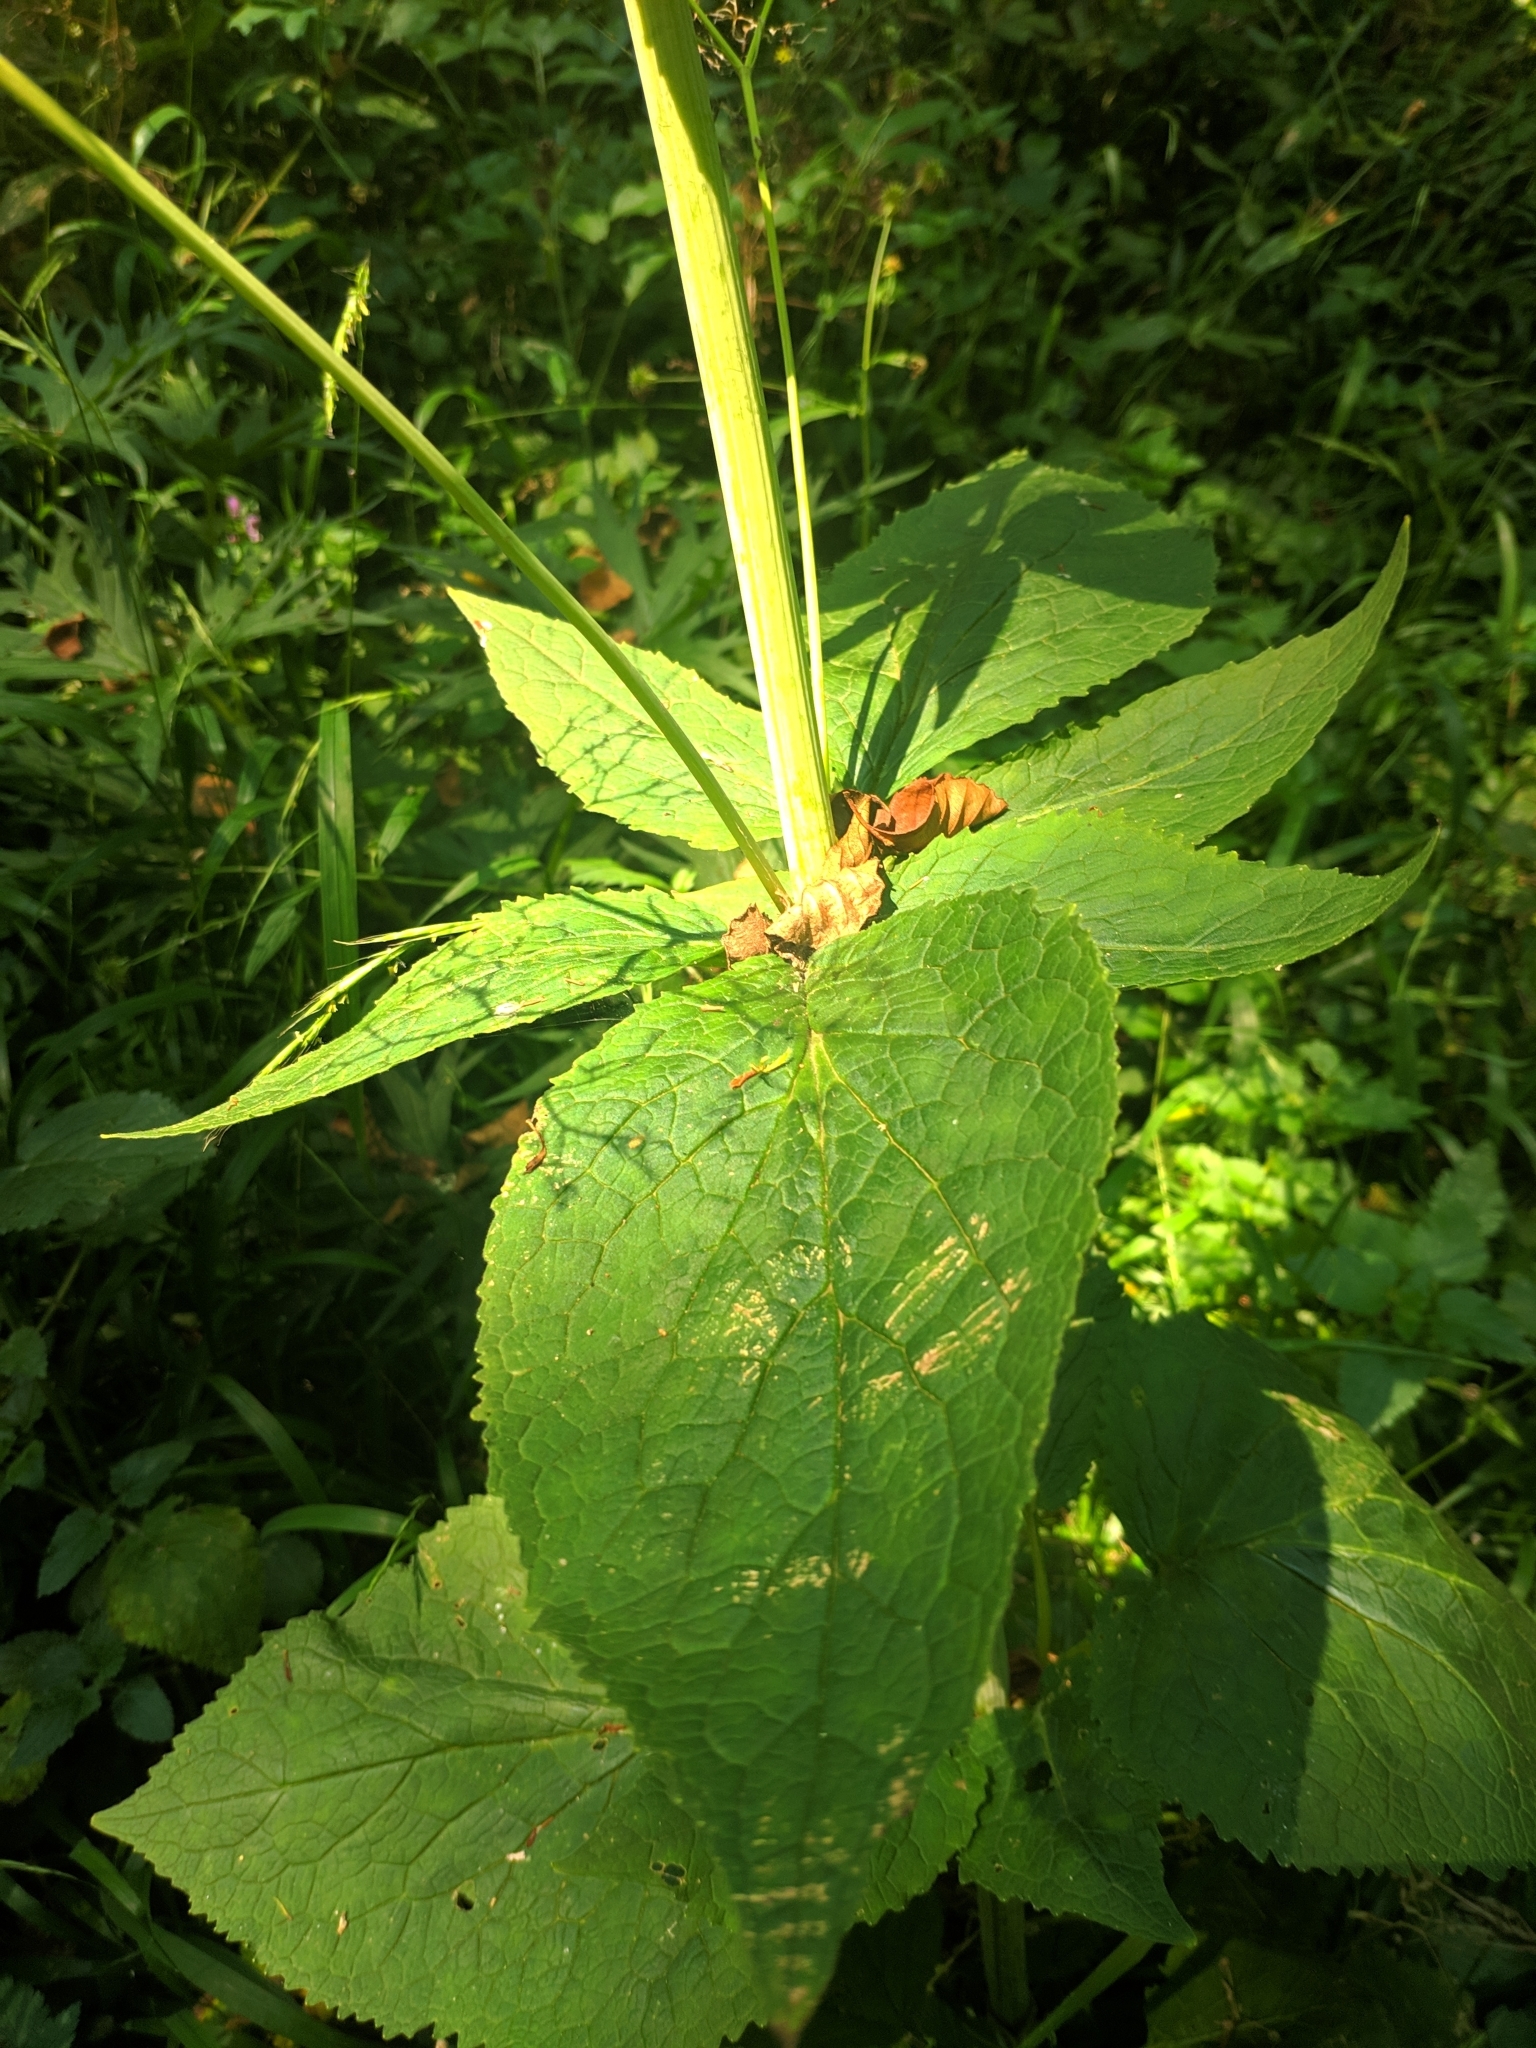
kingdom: Plantae
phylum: Tracheophyta
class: Magnoliopsida
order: Dipsacales
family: Caprifoliaceae
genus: Valeriana
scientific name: Valeriana pyrenaica
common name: Pyrenean valerian
